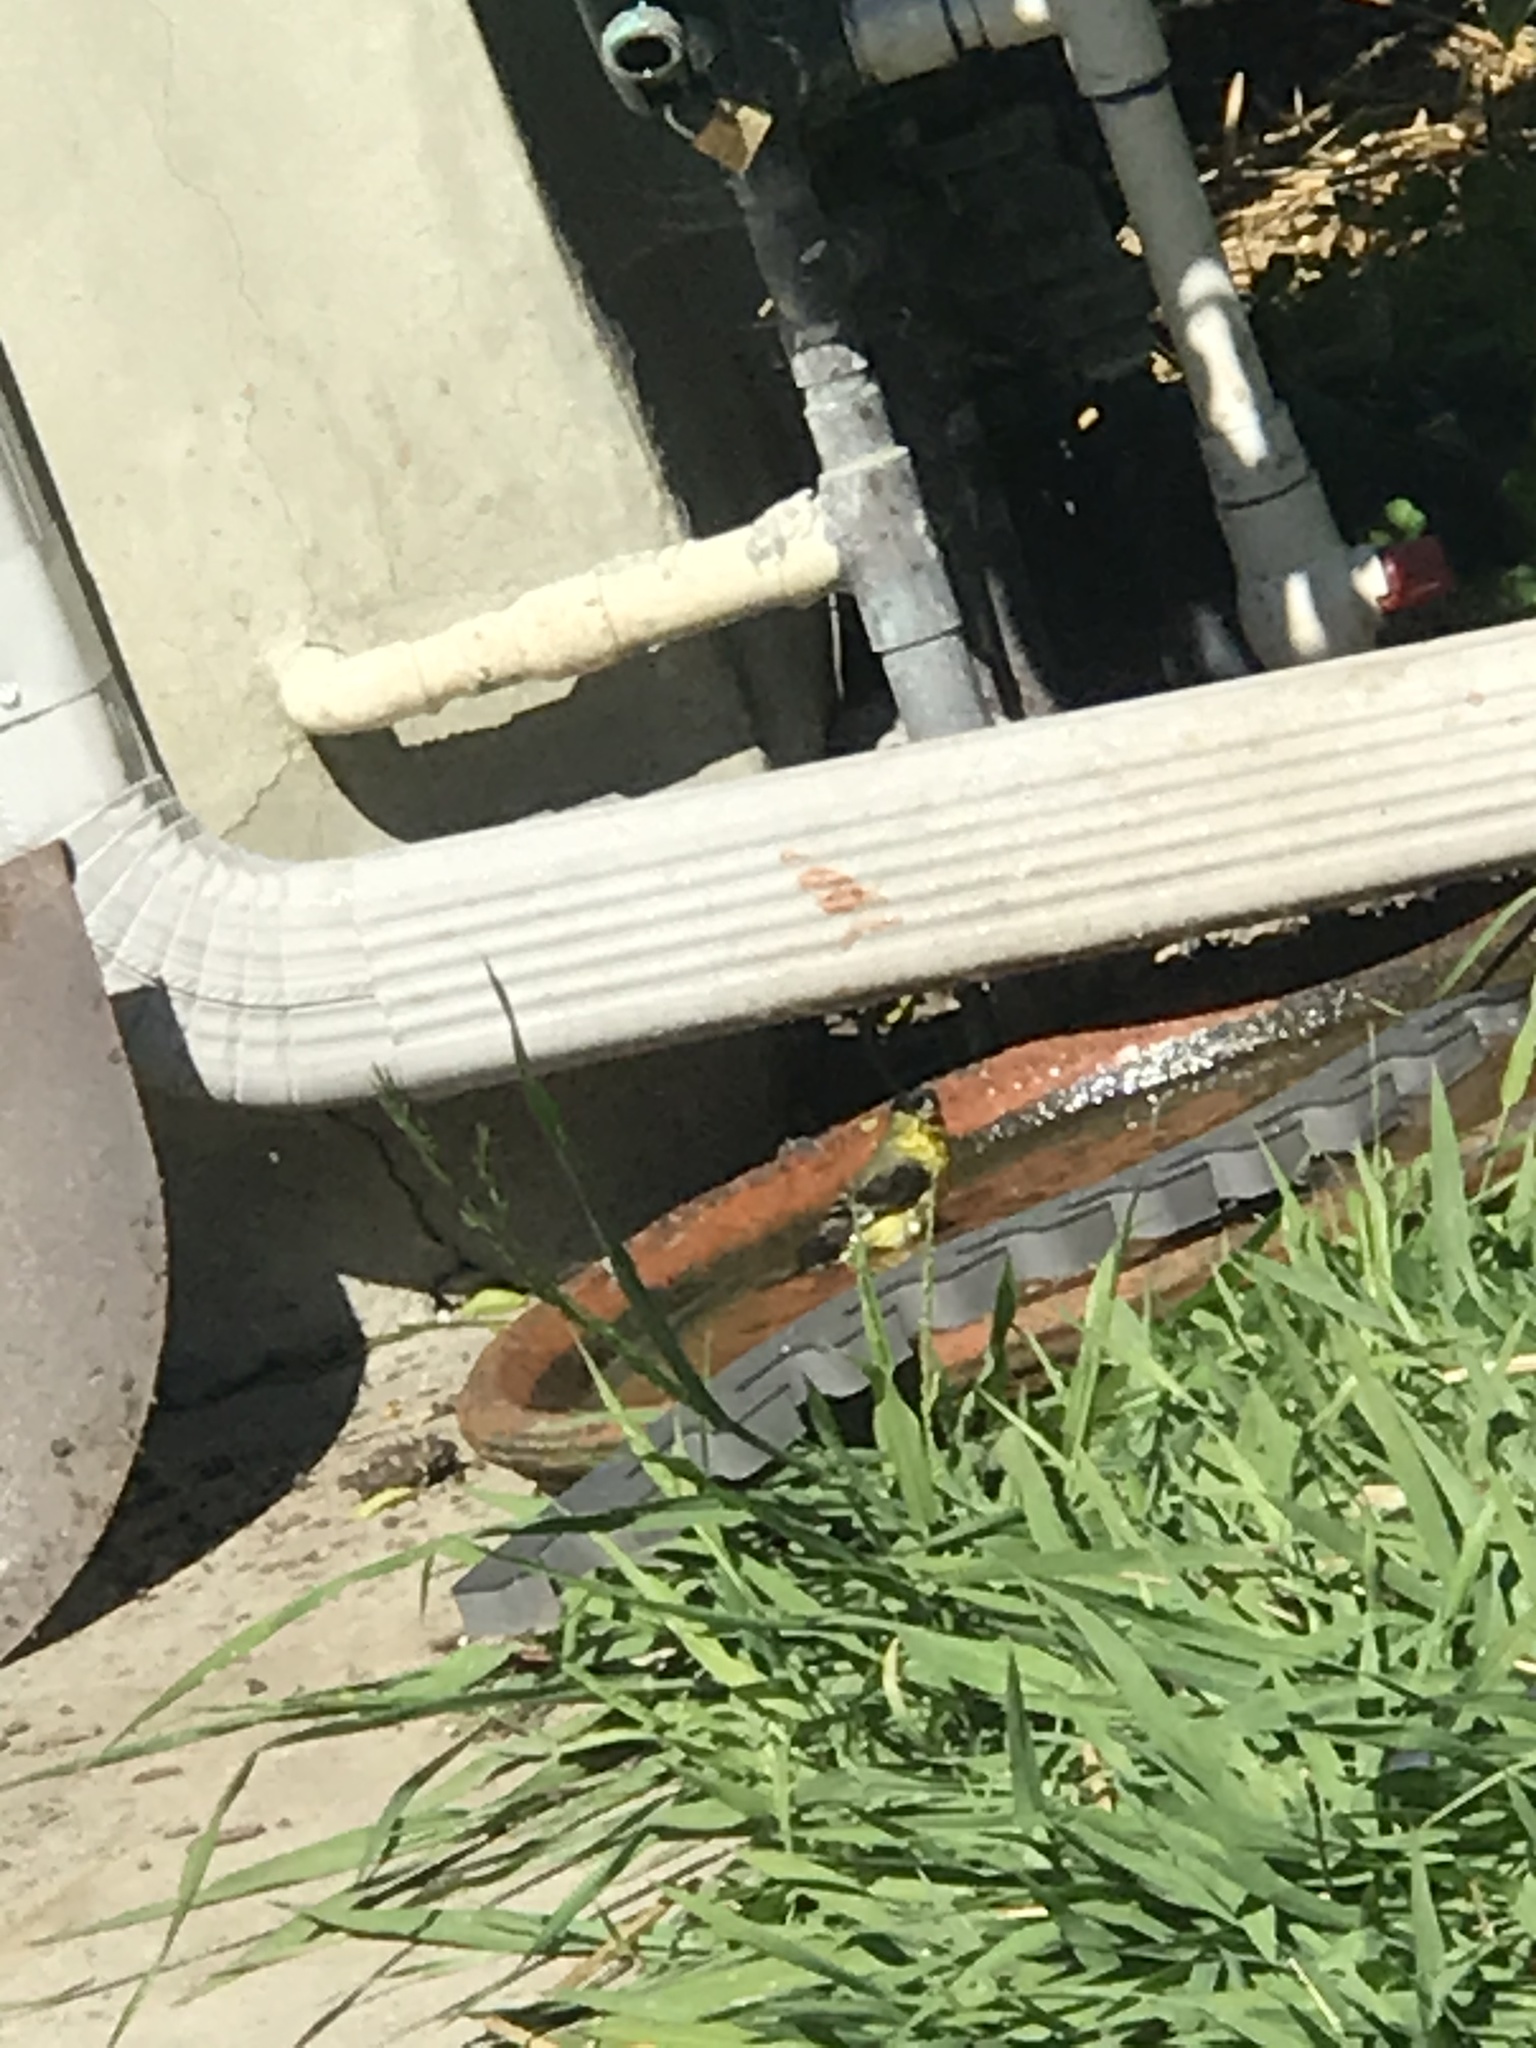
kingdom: Animalia
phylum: Chordata
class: Aves
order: Passeriformes
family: Fringillidae
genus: Spinus
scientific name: Spinus psaltria
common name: Lesser goldfinch
